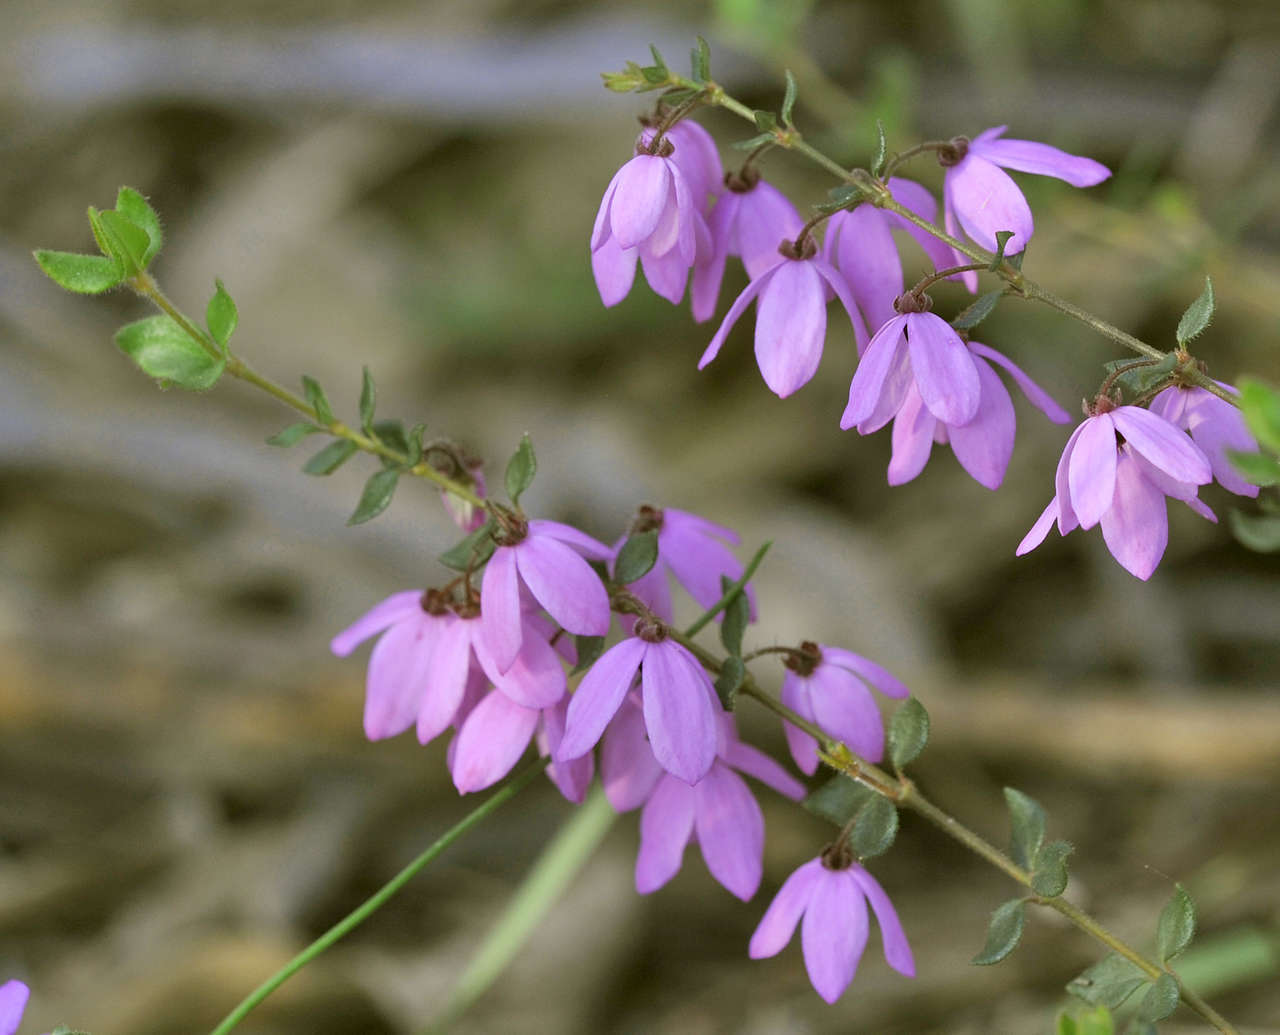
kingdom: Plantae
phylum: Tracheophyta
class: Magnoliopsida
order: Oxalidales
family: Elaeocarpaceae
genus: Tetratheca
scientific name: Tetratheca ciliata
